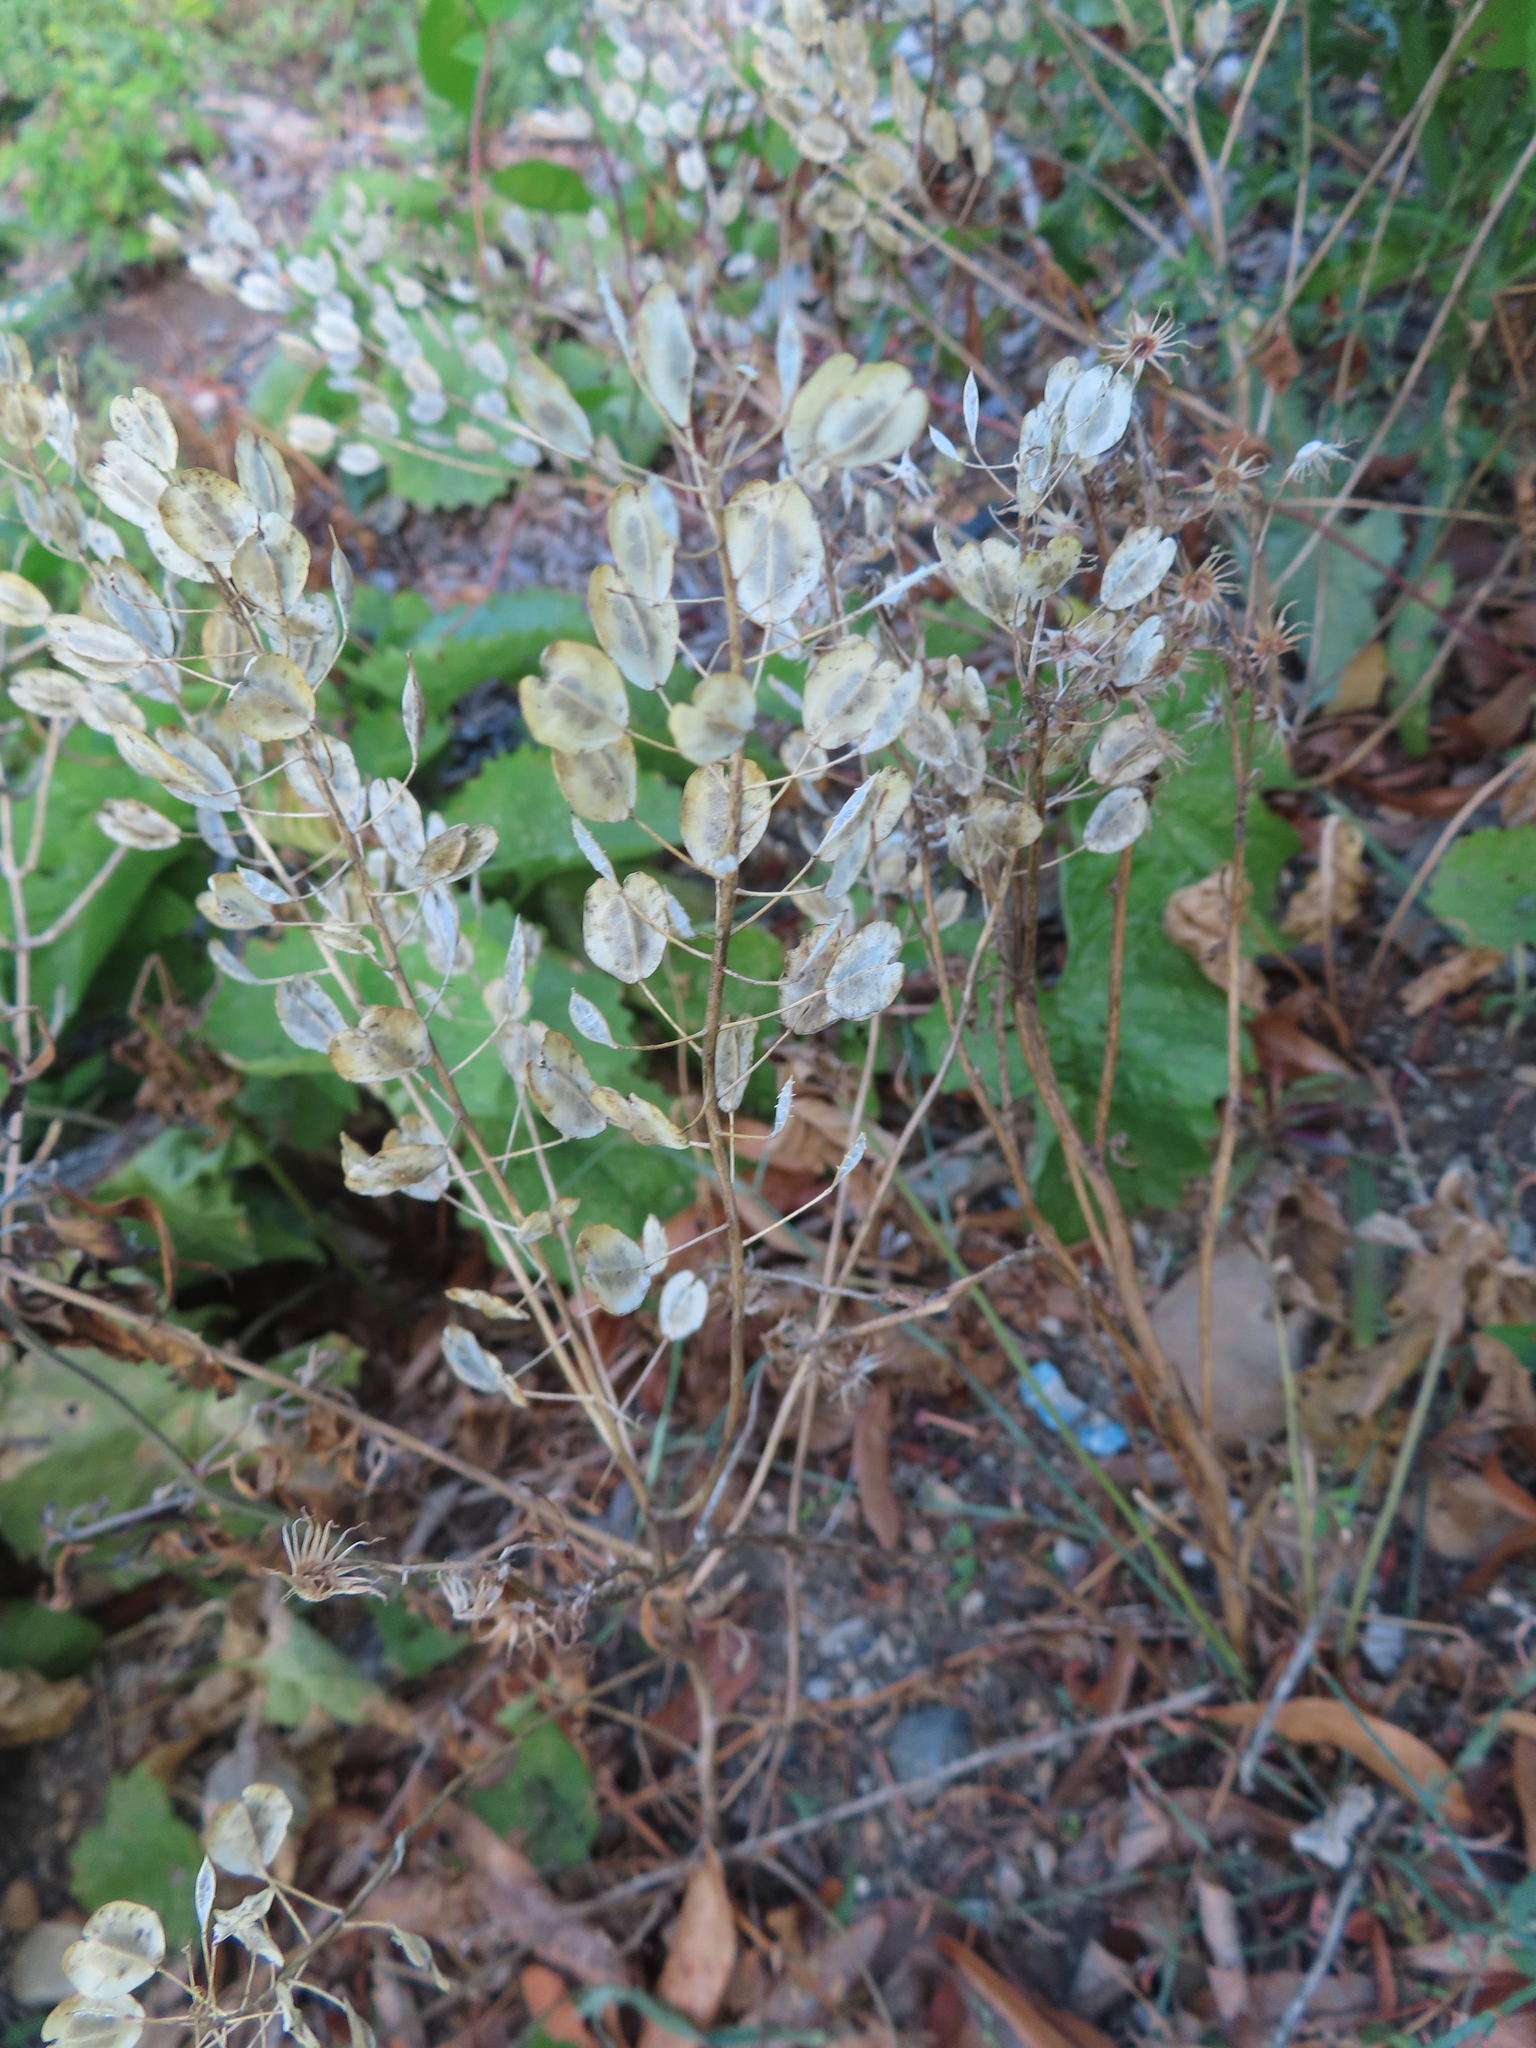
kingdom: Plantae
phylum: Tracheophyta
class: Magnoliopsida
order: Brassicales
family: Brassicaceae
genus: Thlaspi
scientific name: Thlaspi arvense
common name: Field pennycress
